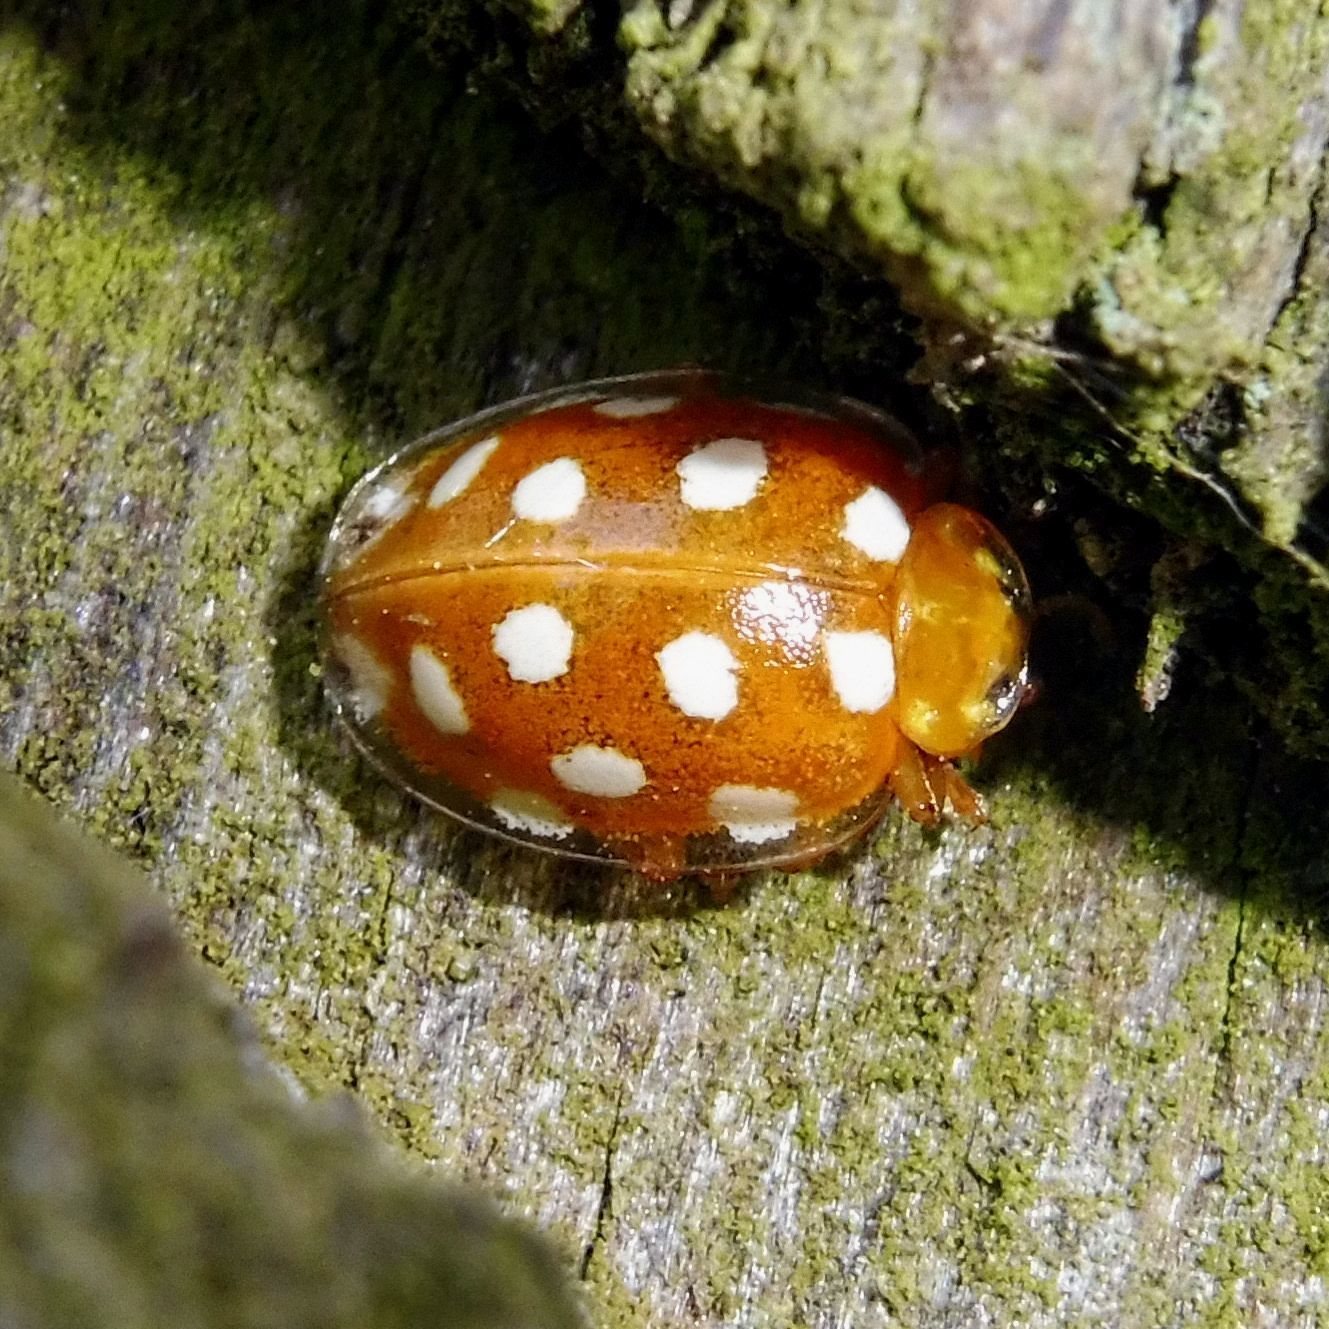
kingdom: Animalia
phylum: Arthropoda
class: Insecta
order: Coleoptera
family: Coccinellidae
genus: Halyzia
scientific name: Halyzia sedecimguttata
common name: Orange ladybird
